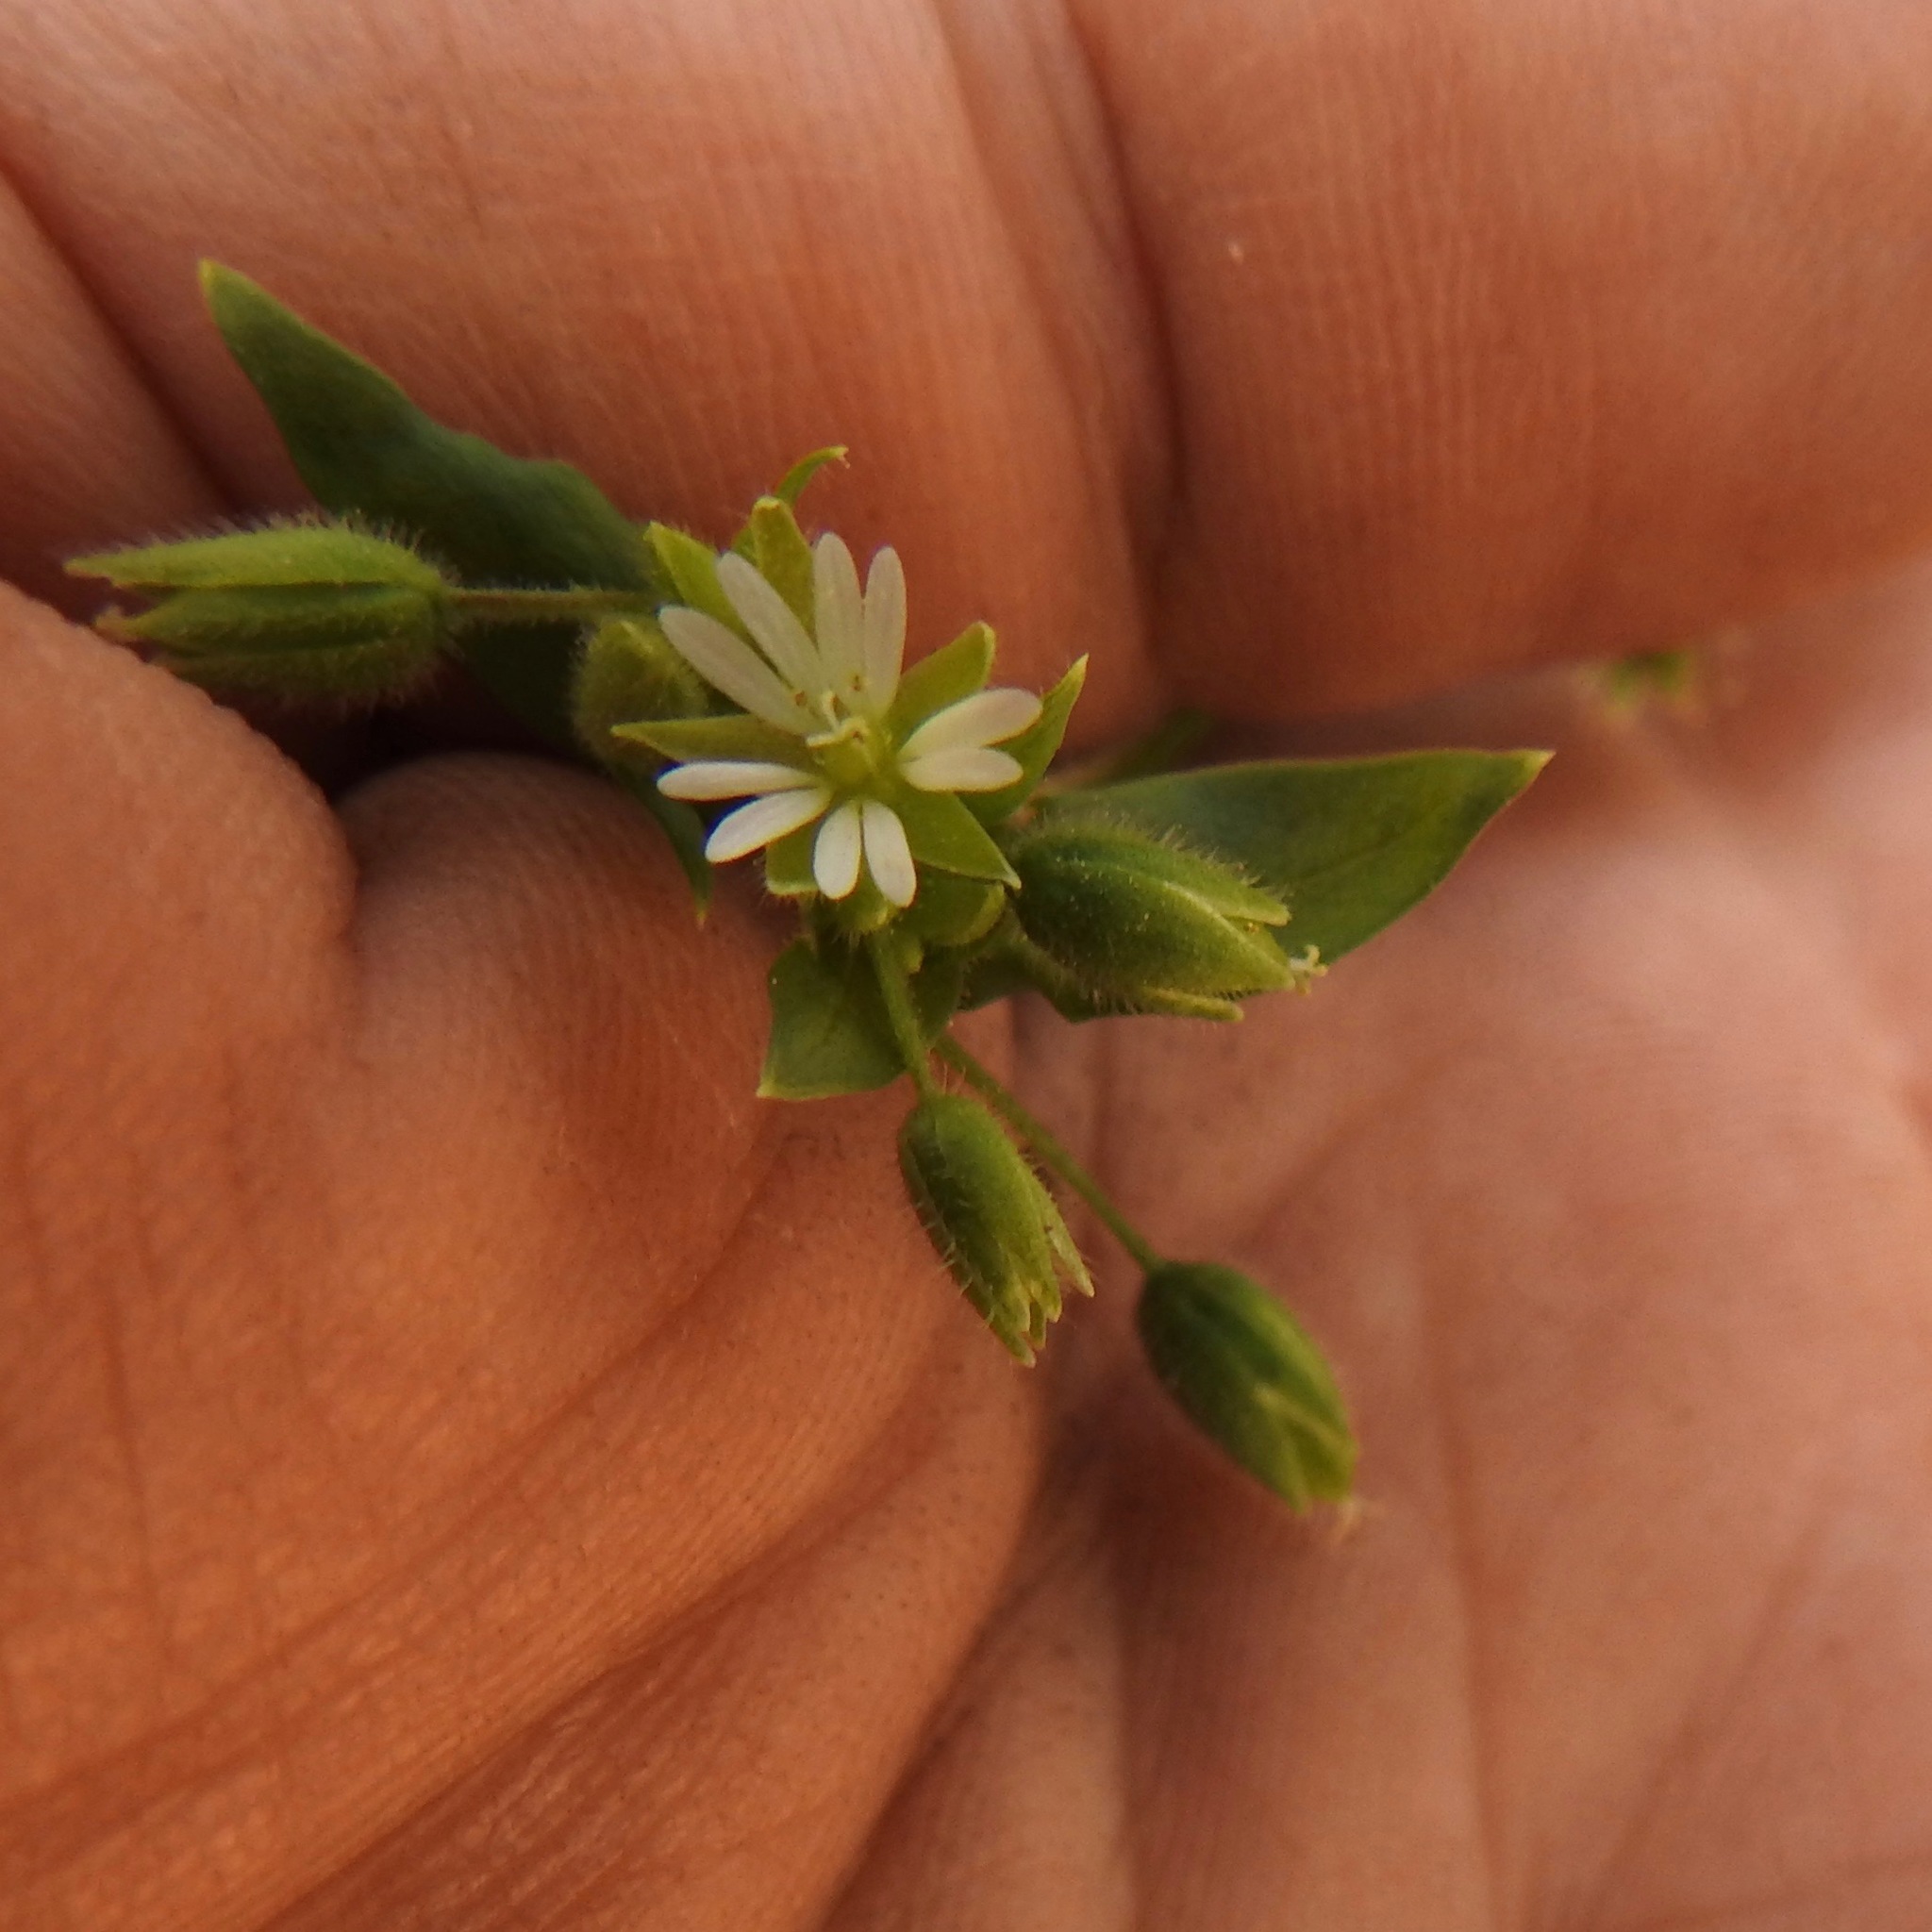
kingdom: Plantae
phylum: Tracheophyta
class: Magnoliopsida
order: Caryophyllales
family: Caryophyllaceae
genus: Stellaria
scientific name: Stellaria media
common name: Common chickweed
